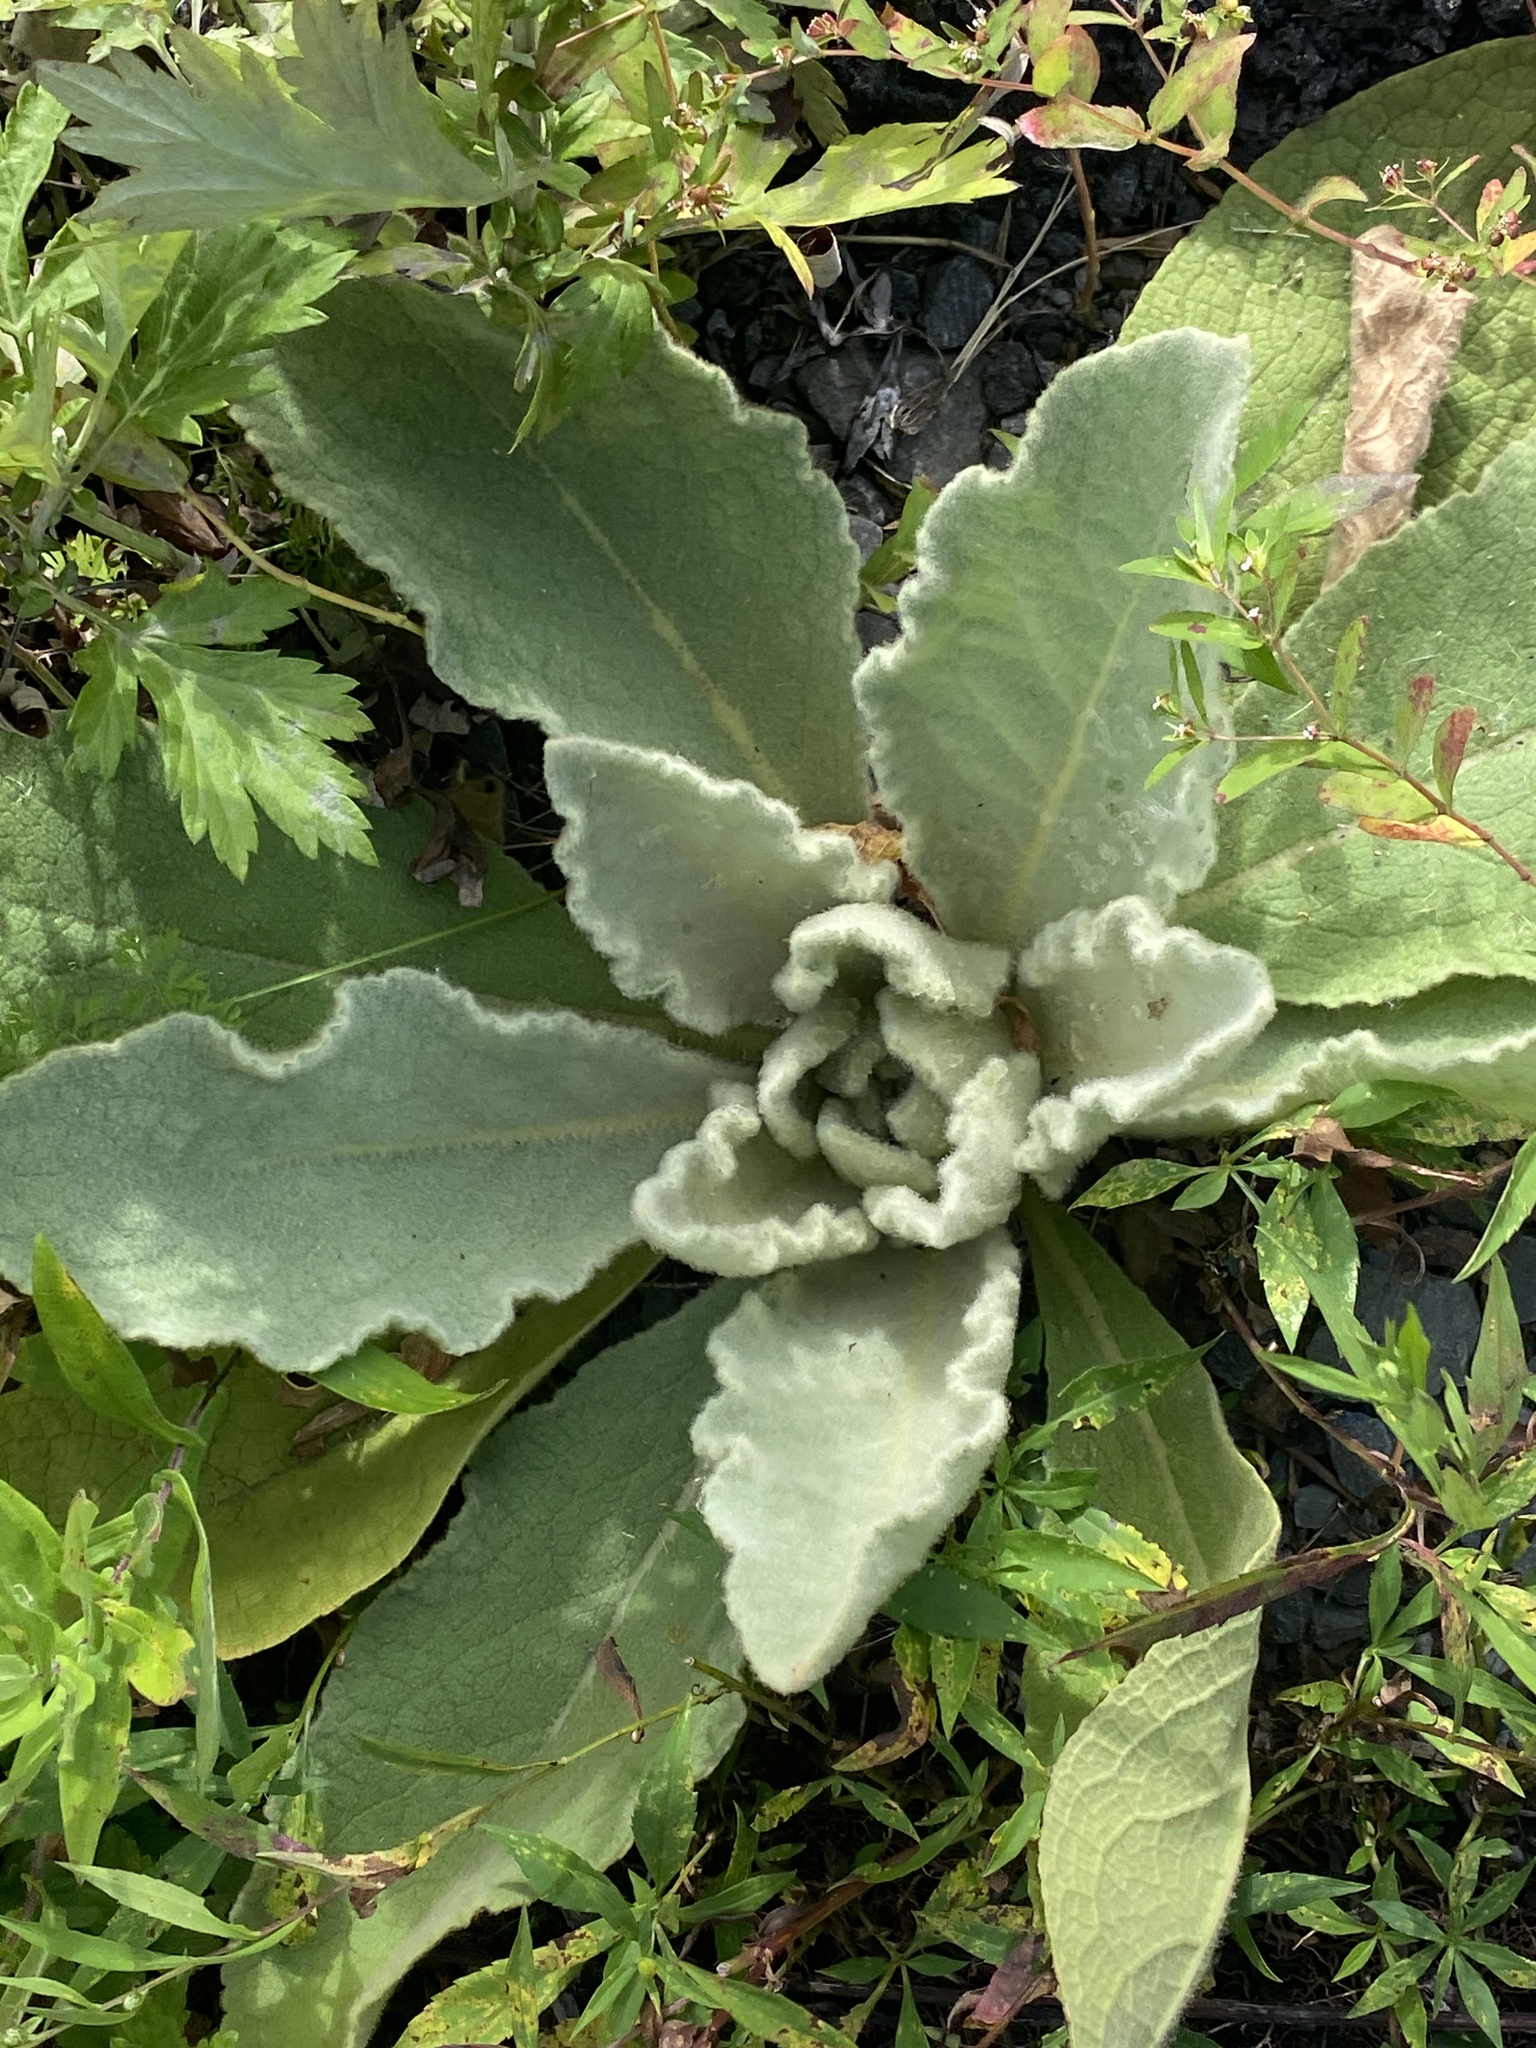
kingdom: Plantae
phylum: Tracheophyta
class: Magnoliopsida
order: Lamiales
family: Scrophulariaceae
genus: Verbascum
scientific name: Verbascum thapsus
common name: Common mullein
